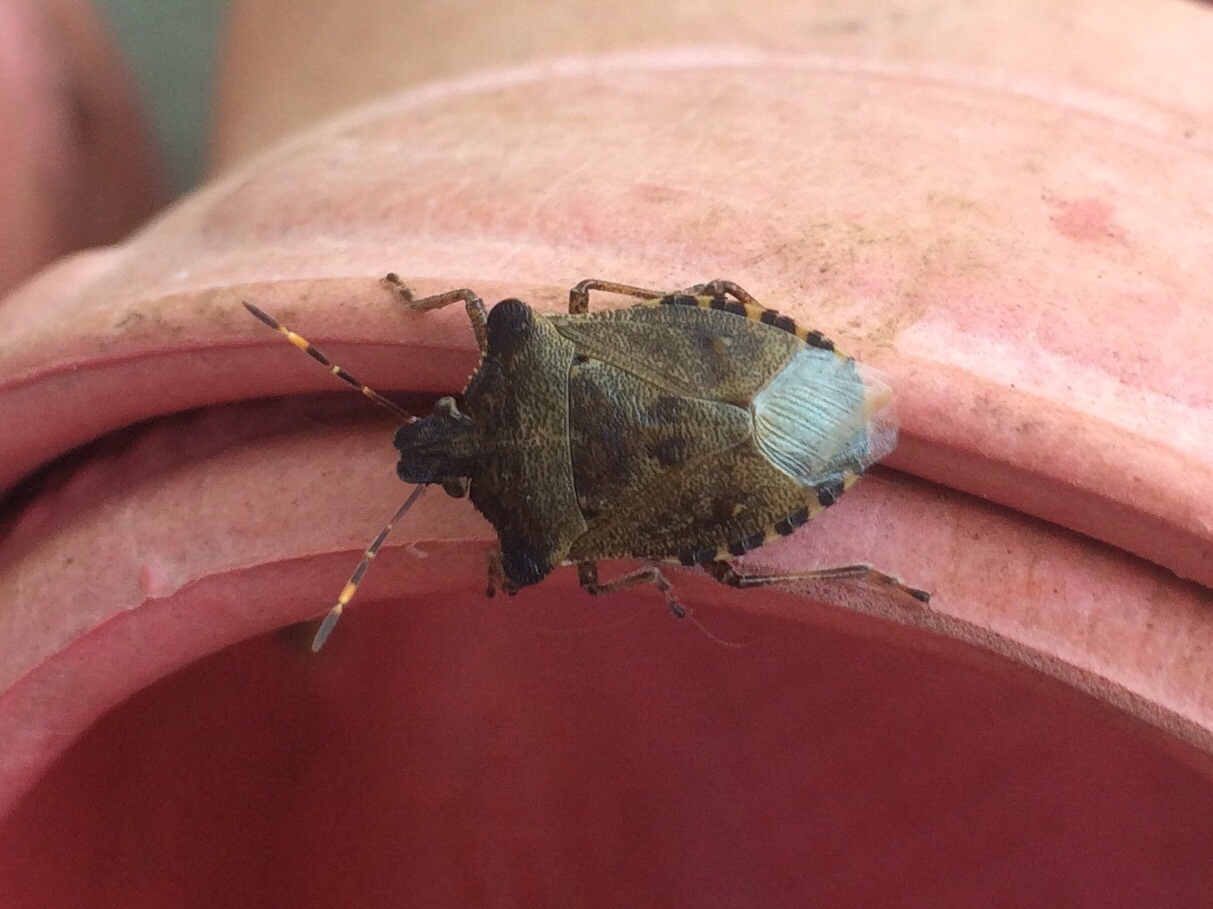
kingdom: Animalia
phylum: Arthropoda
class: Insecta
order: Hemiptera
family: Pentatomidae
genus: Troilus
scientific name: Troilus luridus
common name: Bronze shieldbug
